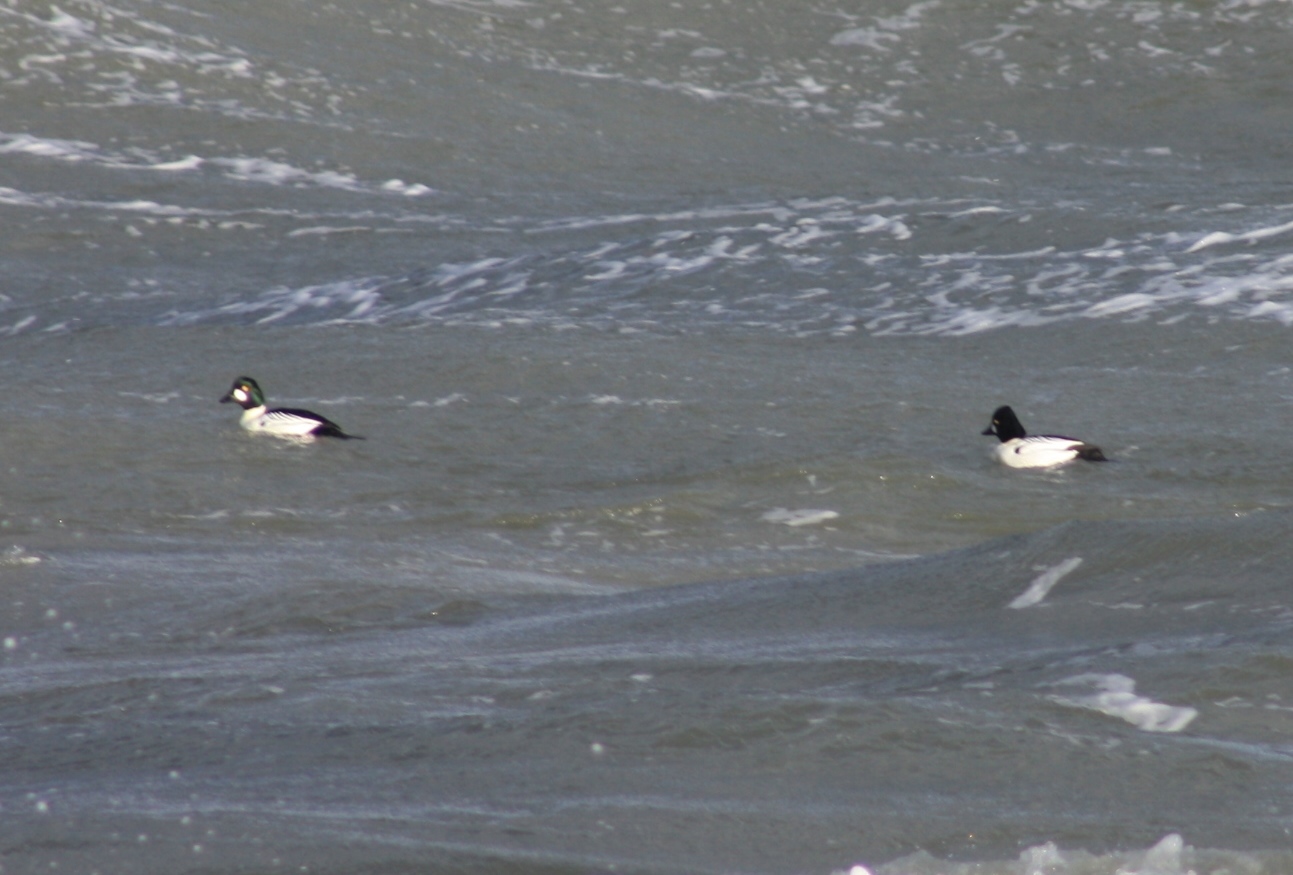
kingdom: Animalia
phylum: Chordata
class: Aves
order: Anseriformes
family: Anatidae
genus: Bucephala
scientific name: Bucephala clangula
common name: Common goldeneye
